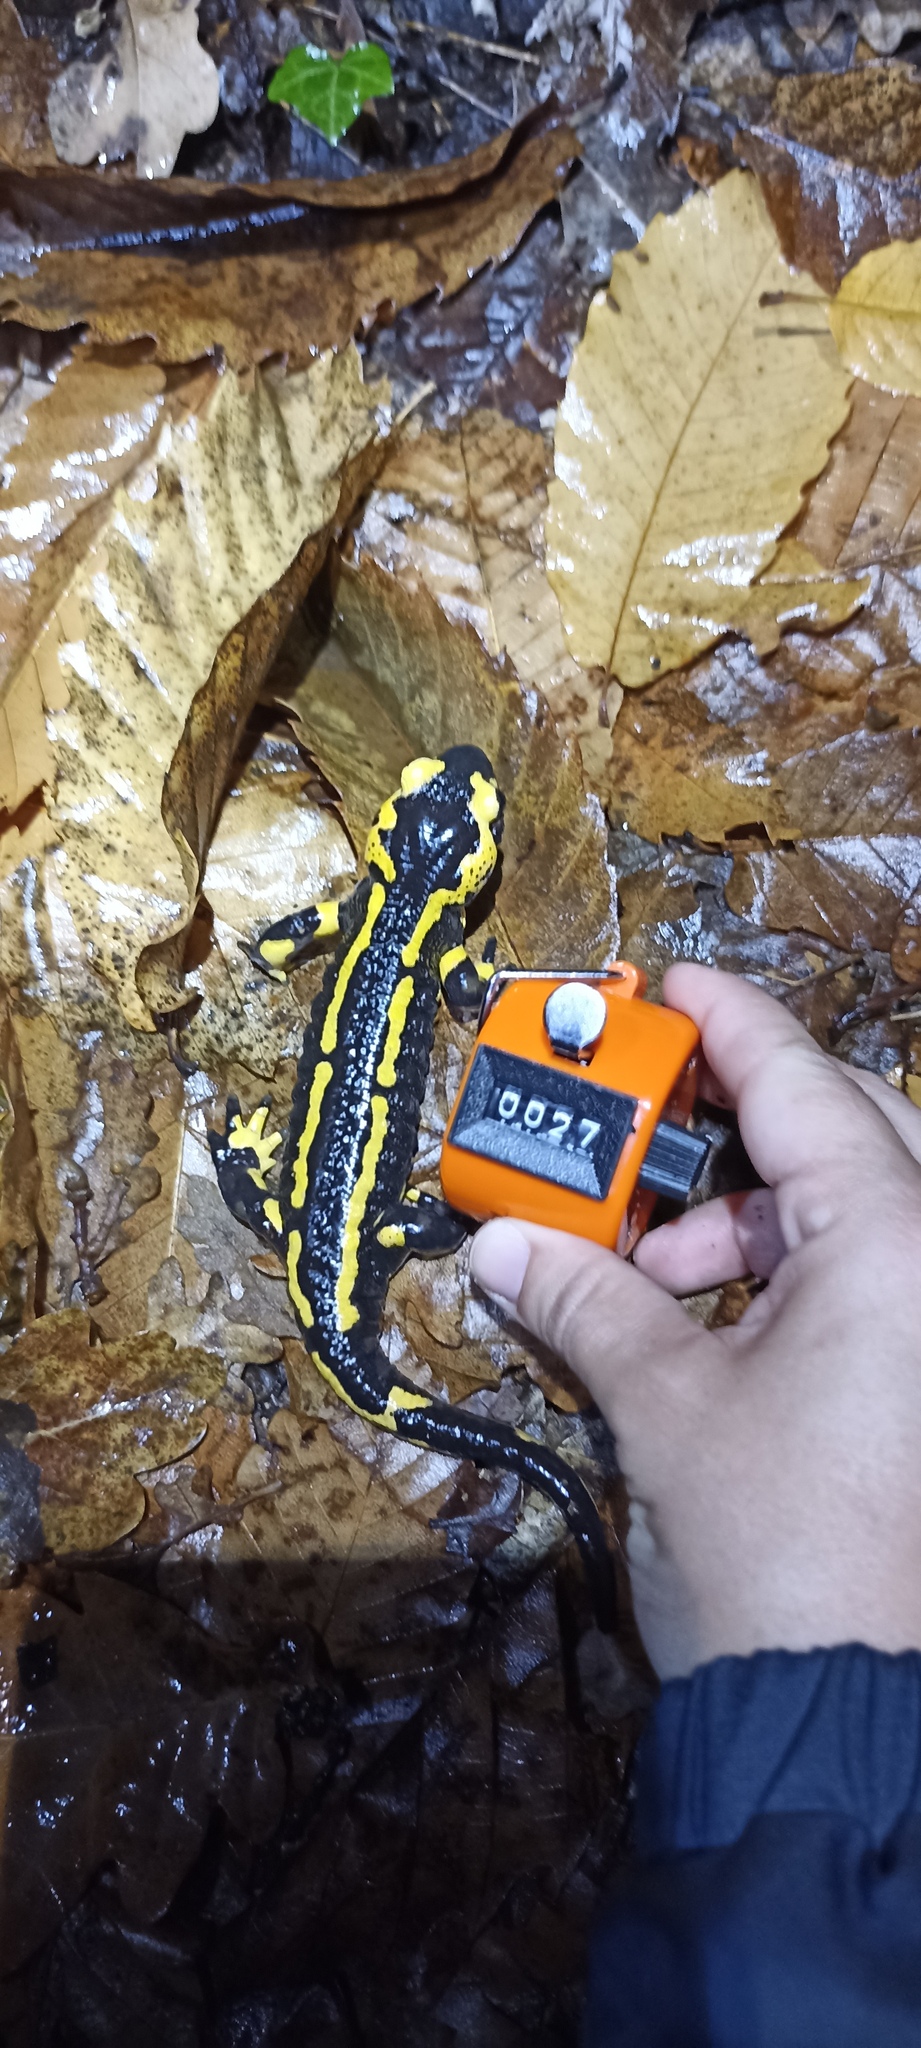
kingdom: Animalia
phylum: Chordata
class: Amphibia
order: Caudata
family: Salamandridae
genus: Salamandra
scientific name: Salamandra salamandra
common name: Fire salamander
